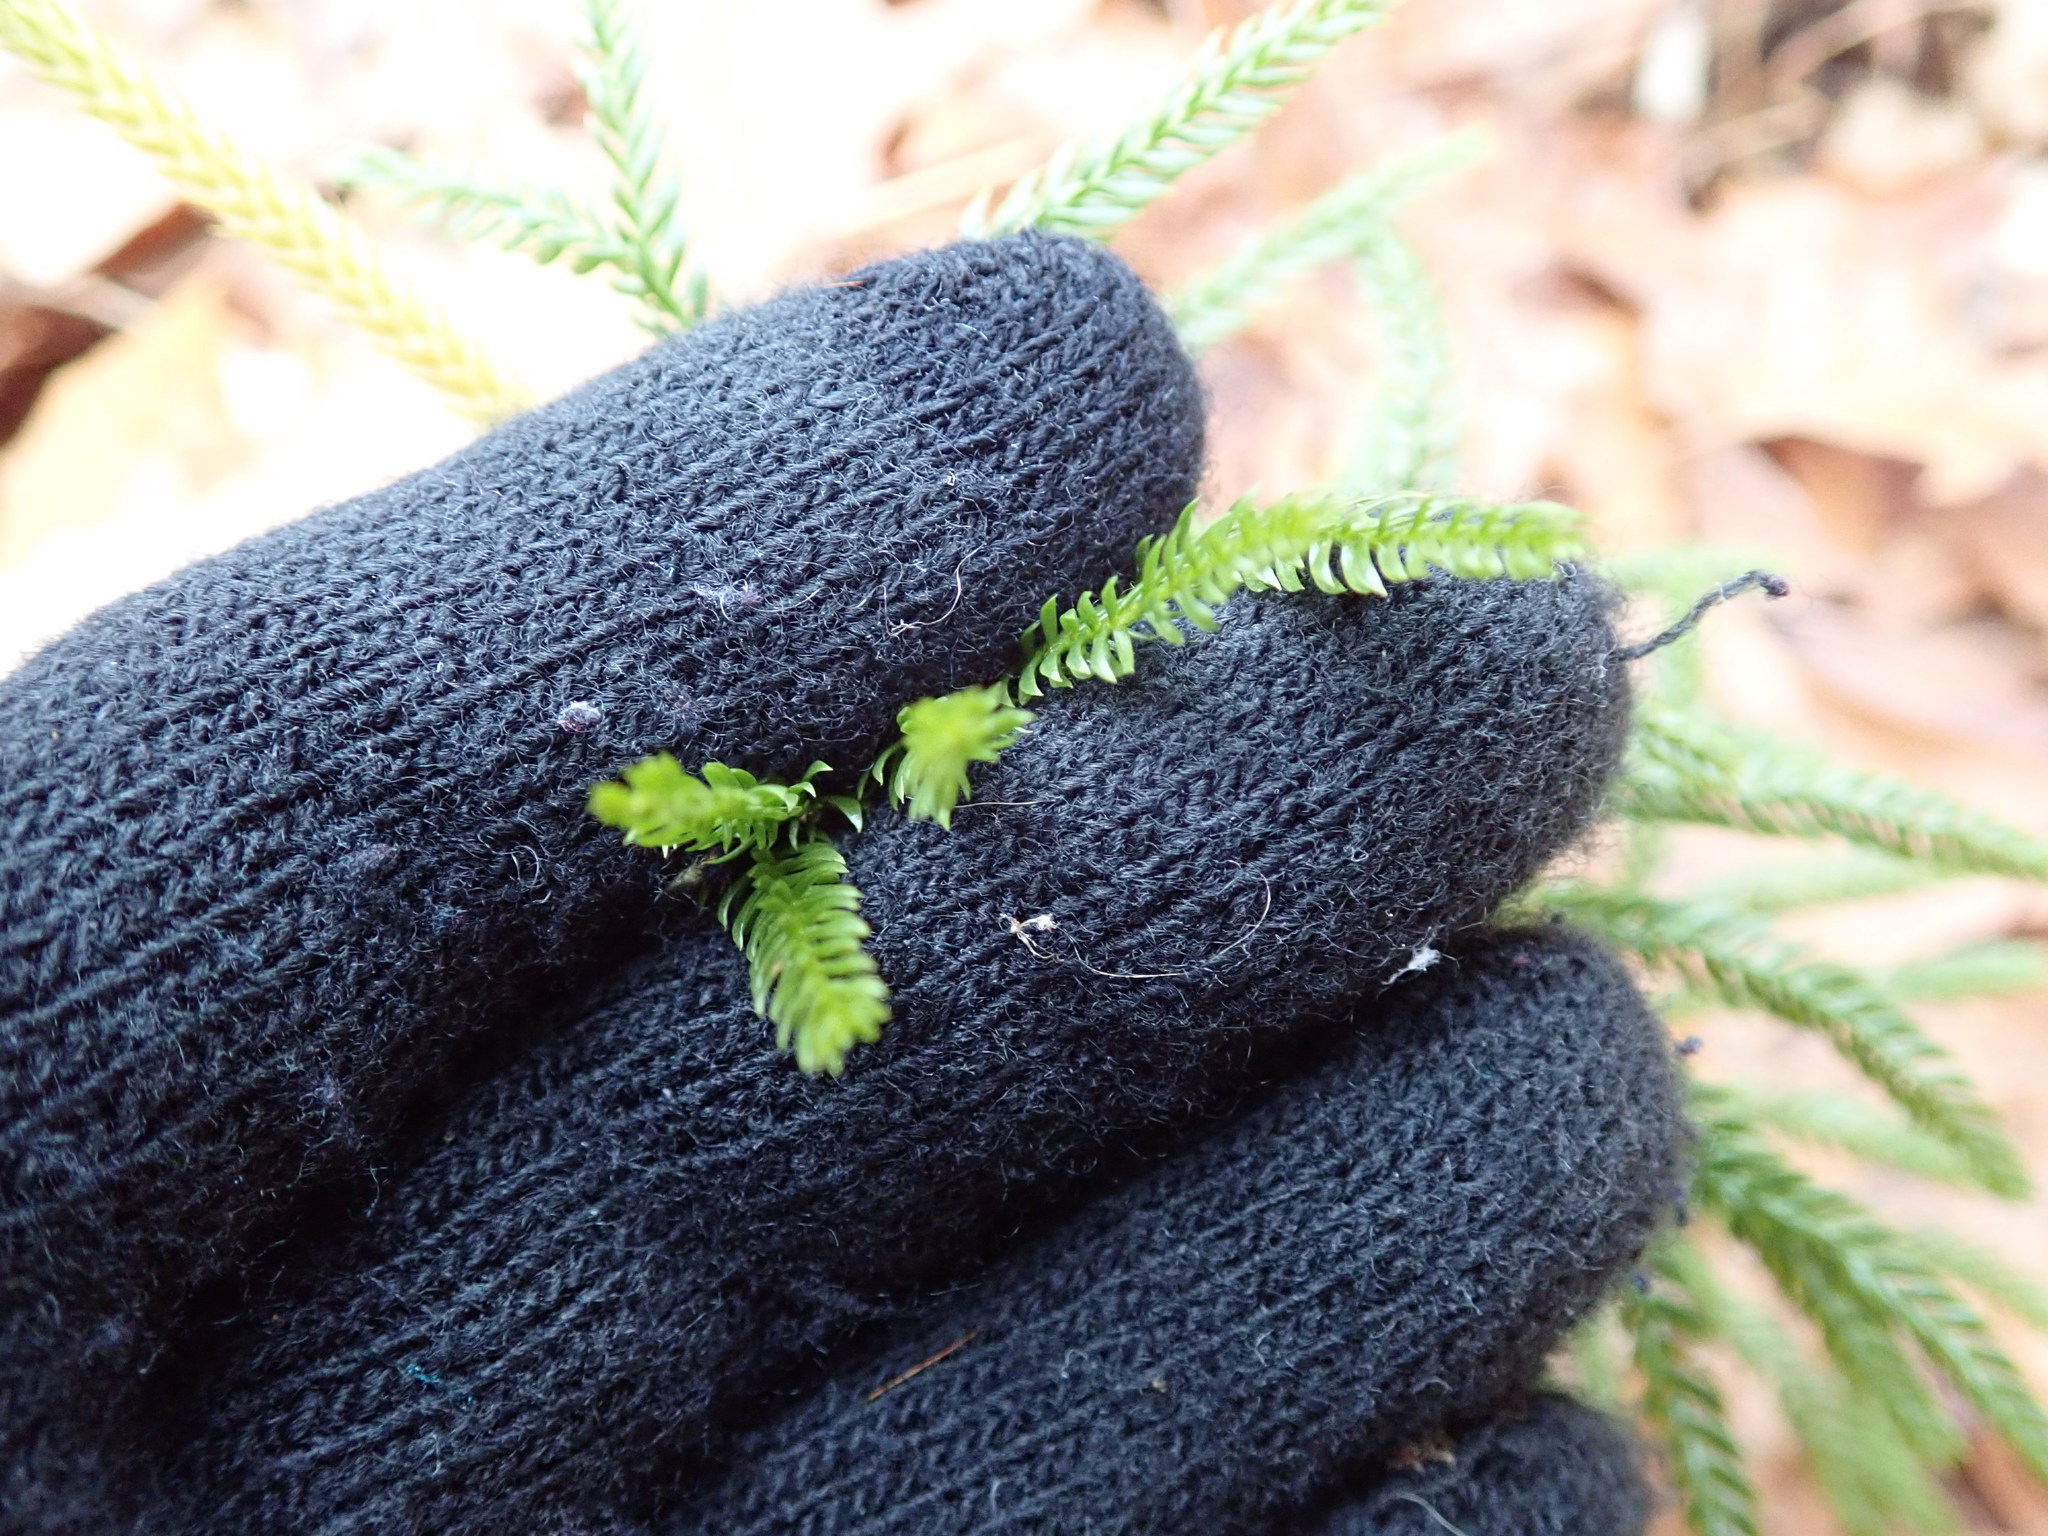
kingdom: Plantae
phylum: Tracheophyta
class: Lycopodiopsida
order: Lycopodiales
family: Lycopodiaceae
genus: Dendrolycopodium
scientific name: Dendrolycopodium obscurum
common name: Common ground-pine
